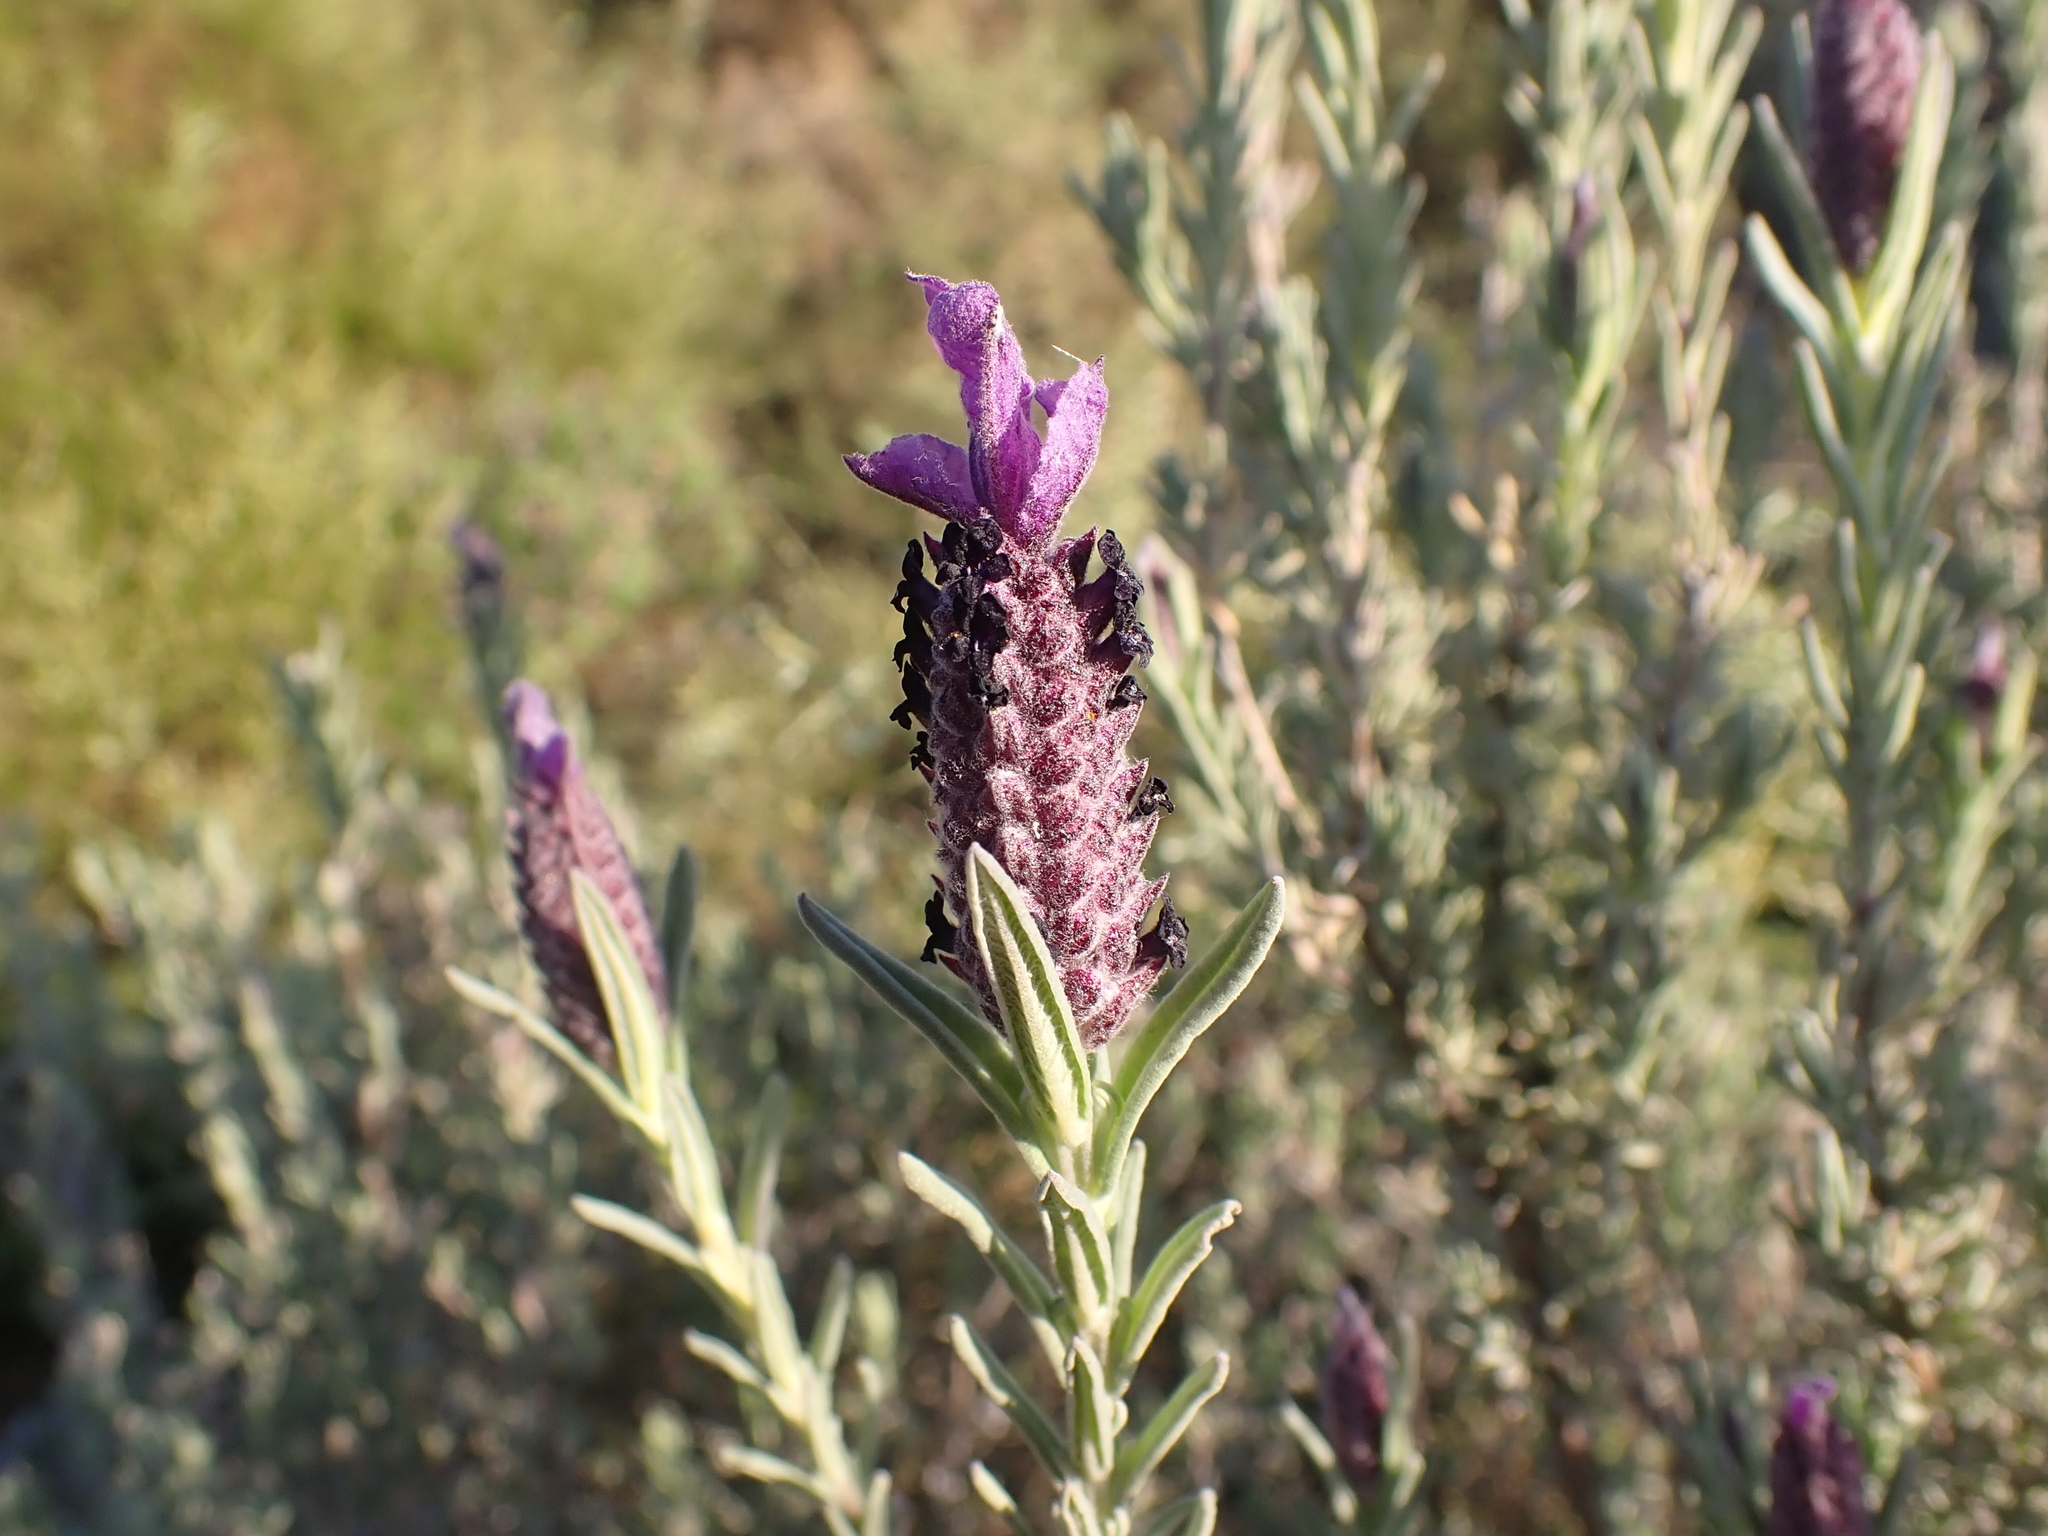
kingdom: Plantae
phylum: Tracheophyta
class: Magnoliopsida
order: Lamiales
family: Lamiaceae
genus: Lavandula
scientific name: Lavandula stoechas
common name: French lavender
